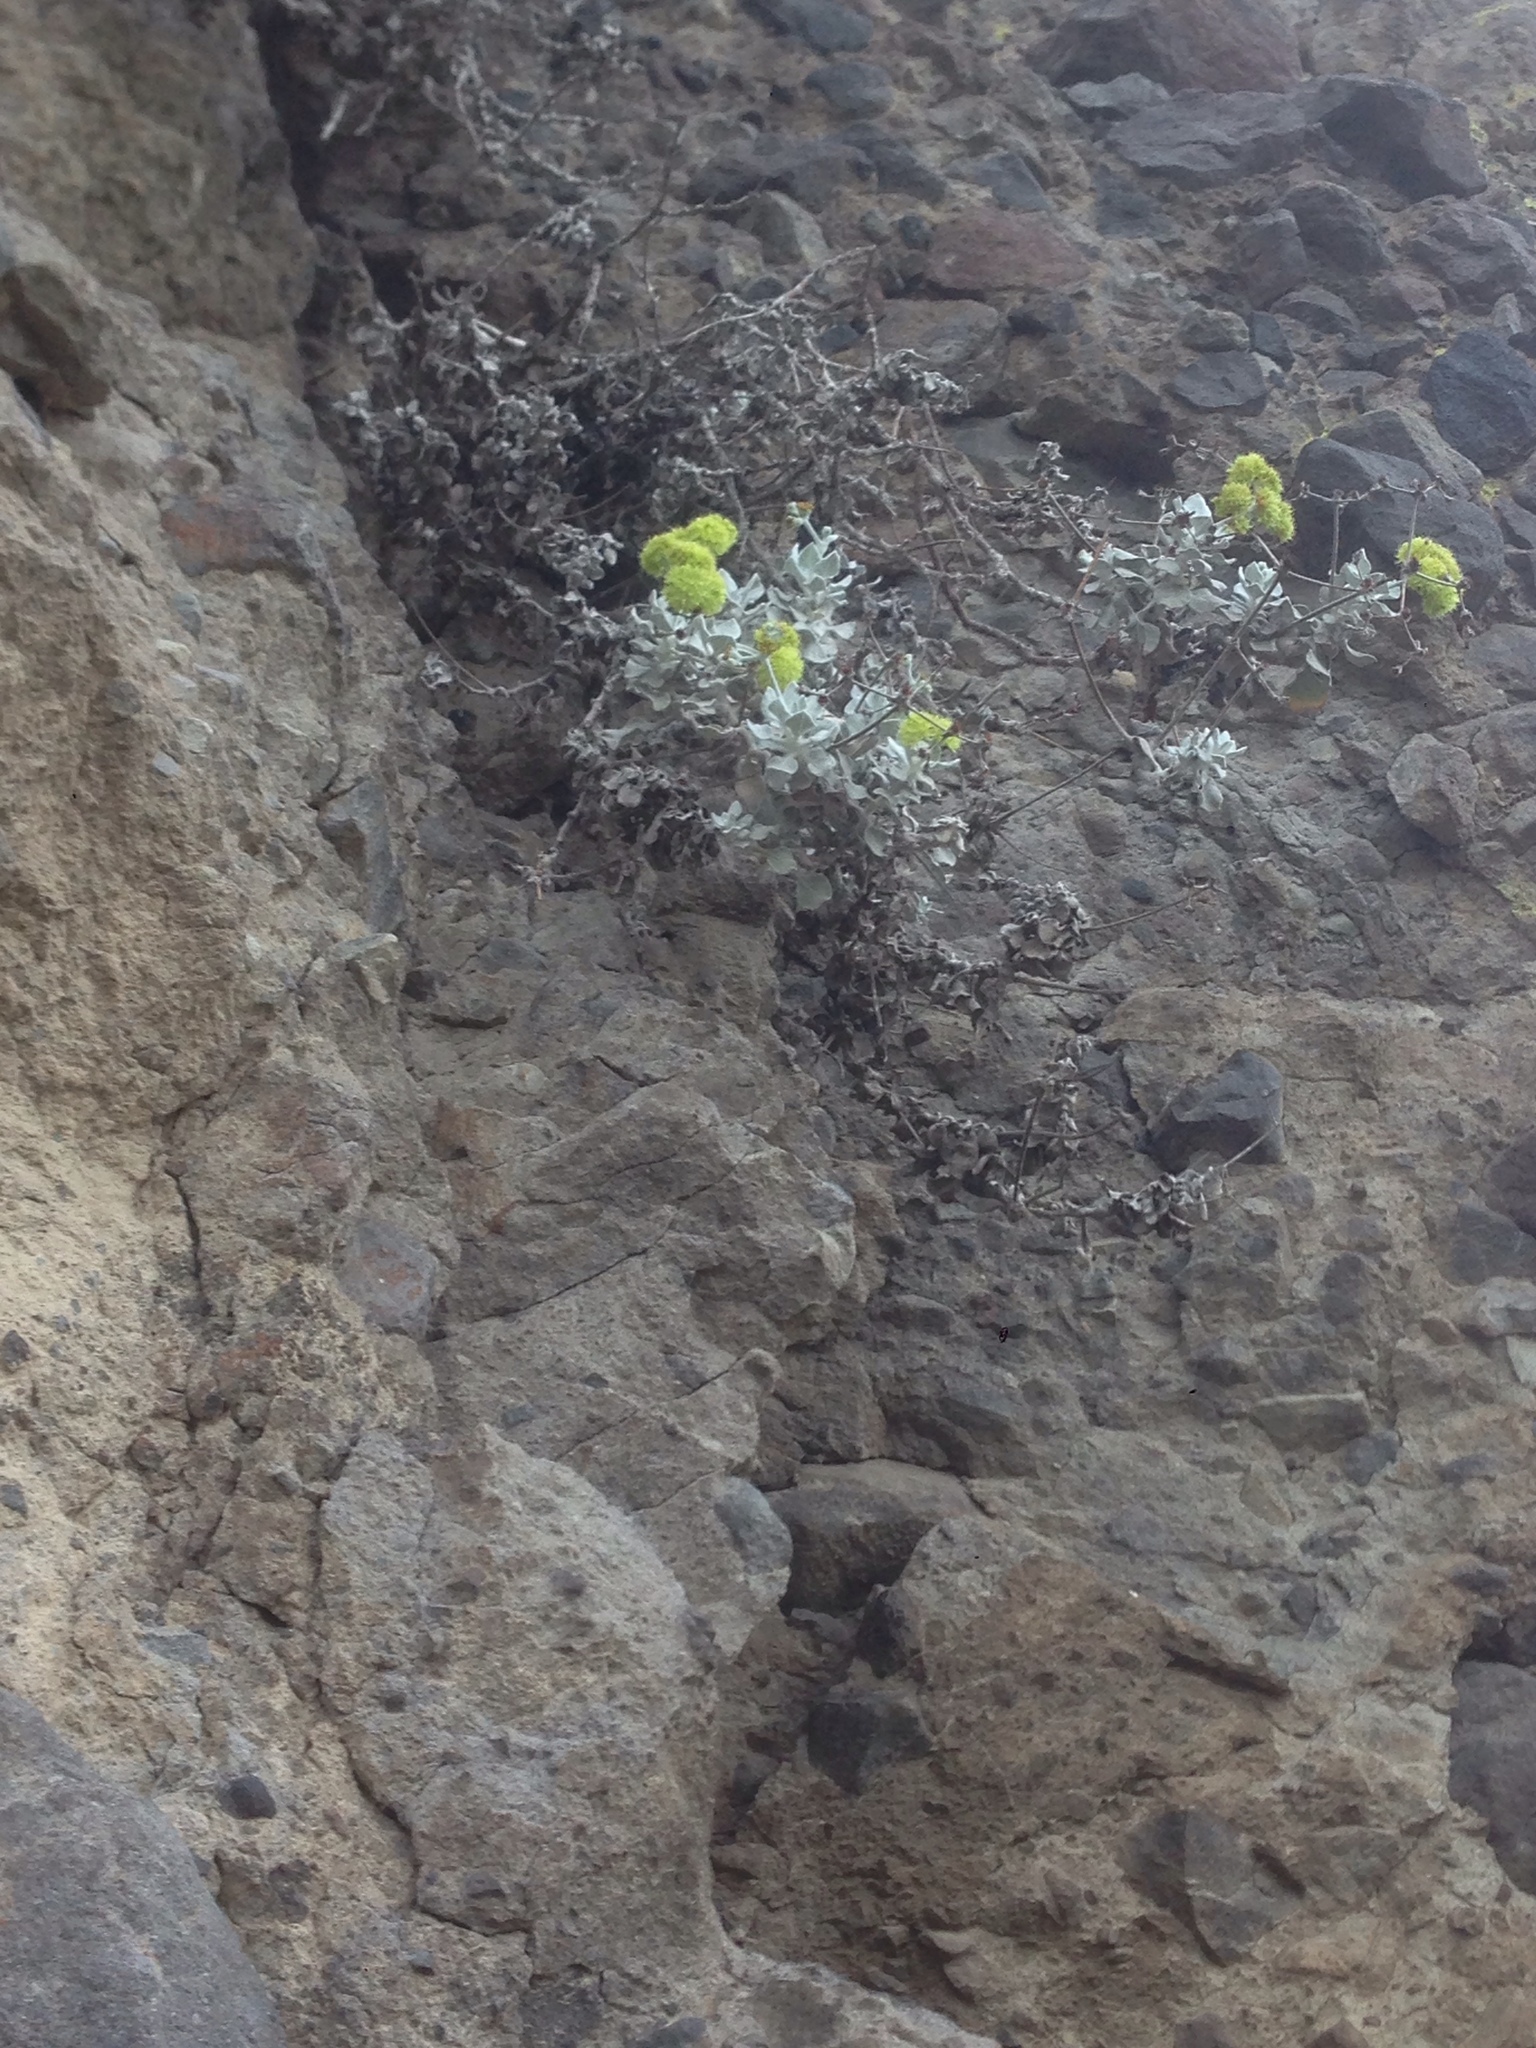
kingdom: Plantae
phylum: Tracheophyta
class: Magnoliopsida
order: Caryophyllales
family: Polygonaceae
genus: Eriogonum
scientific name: Eriogonum crocatum
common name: Saffron wild buckwheat
